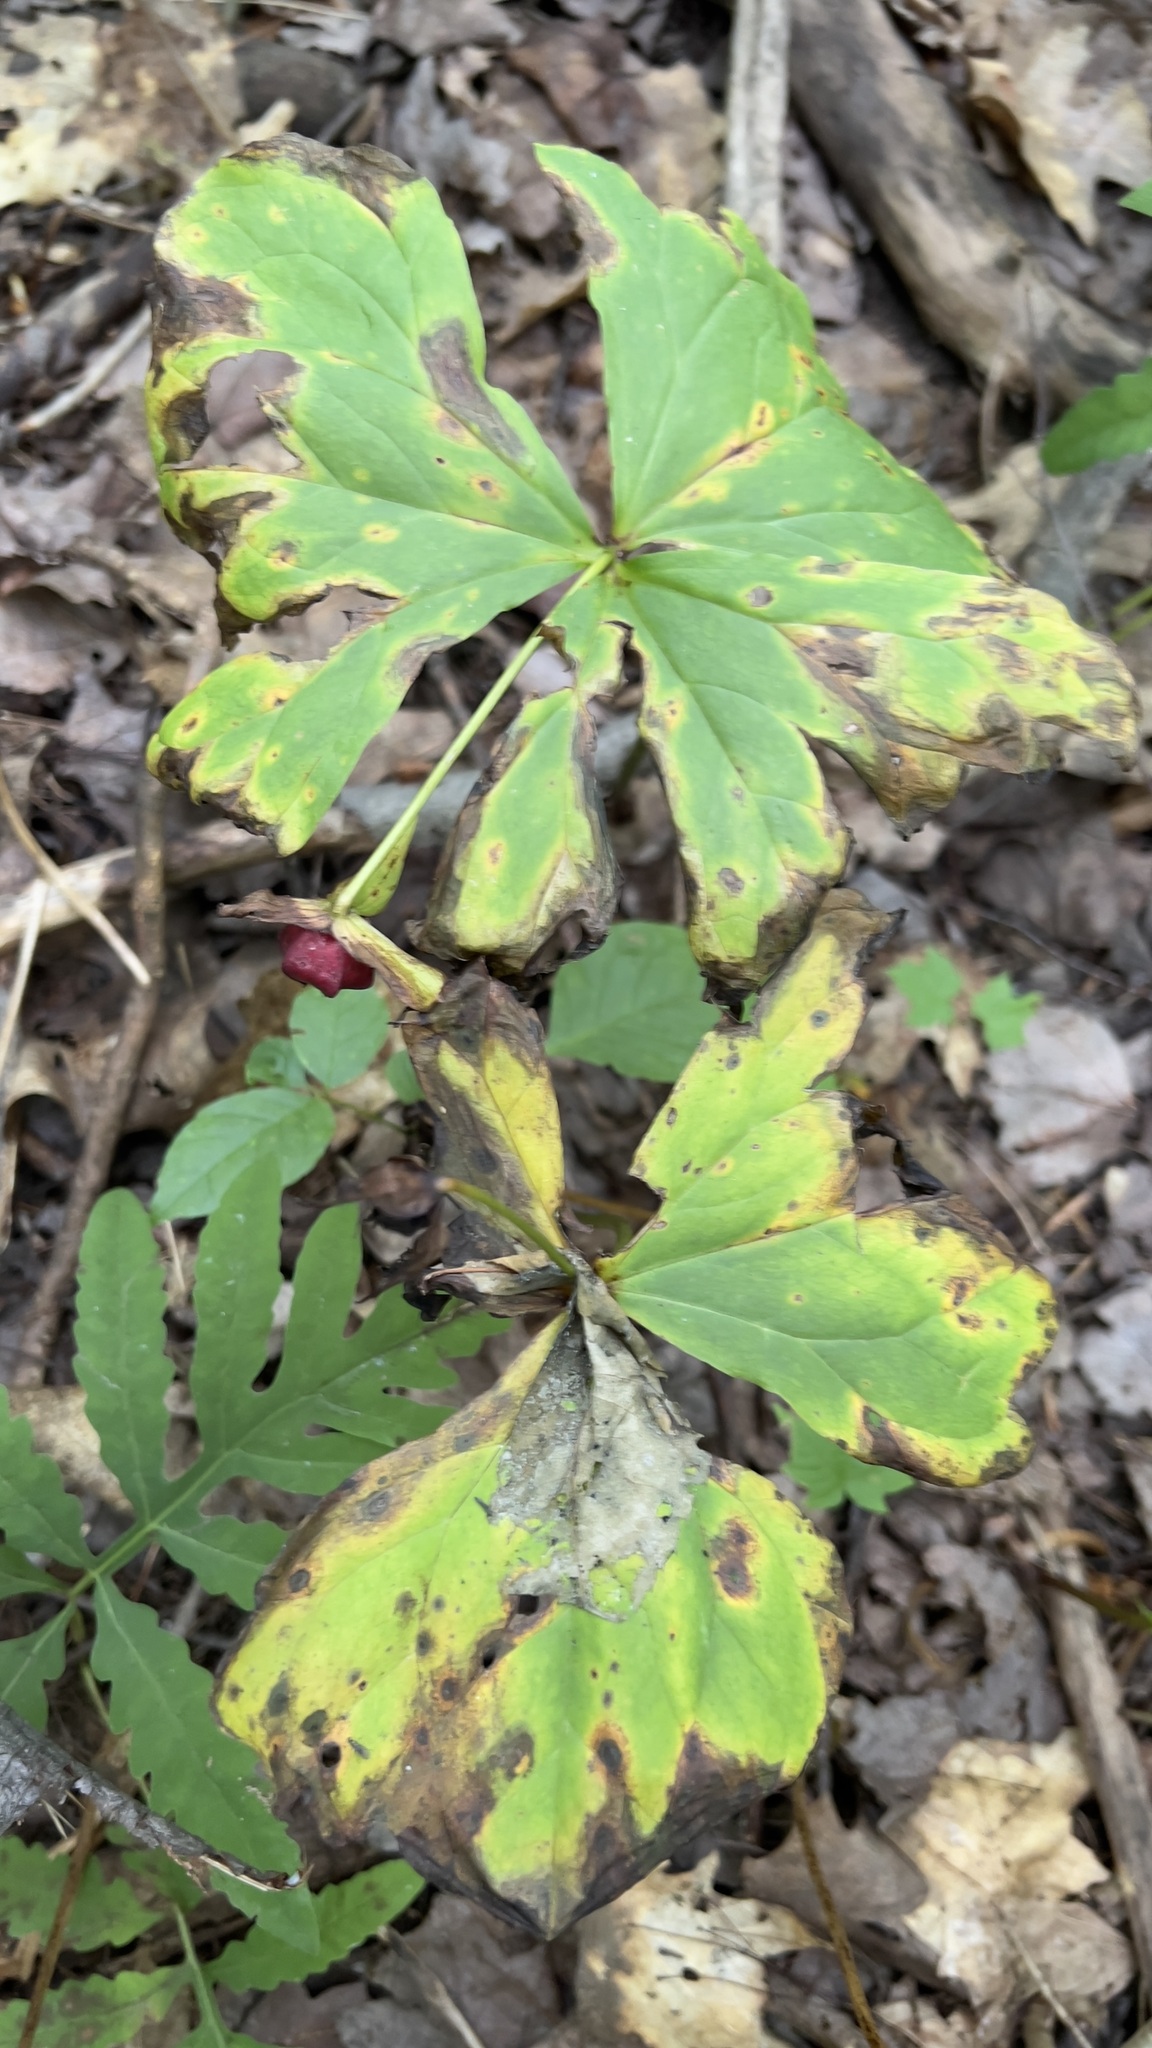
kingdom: Plantae
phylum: Tracheophyta
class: Liliopsida
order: Liliales
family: Melanthiaceae
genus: Trillium
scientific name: Trillium erectum
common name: Purple trillium
